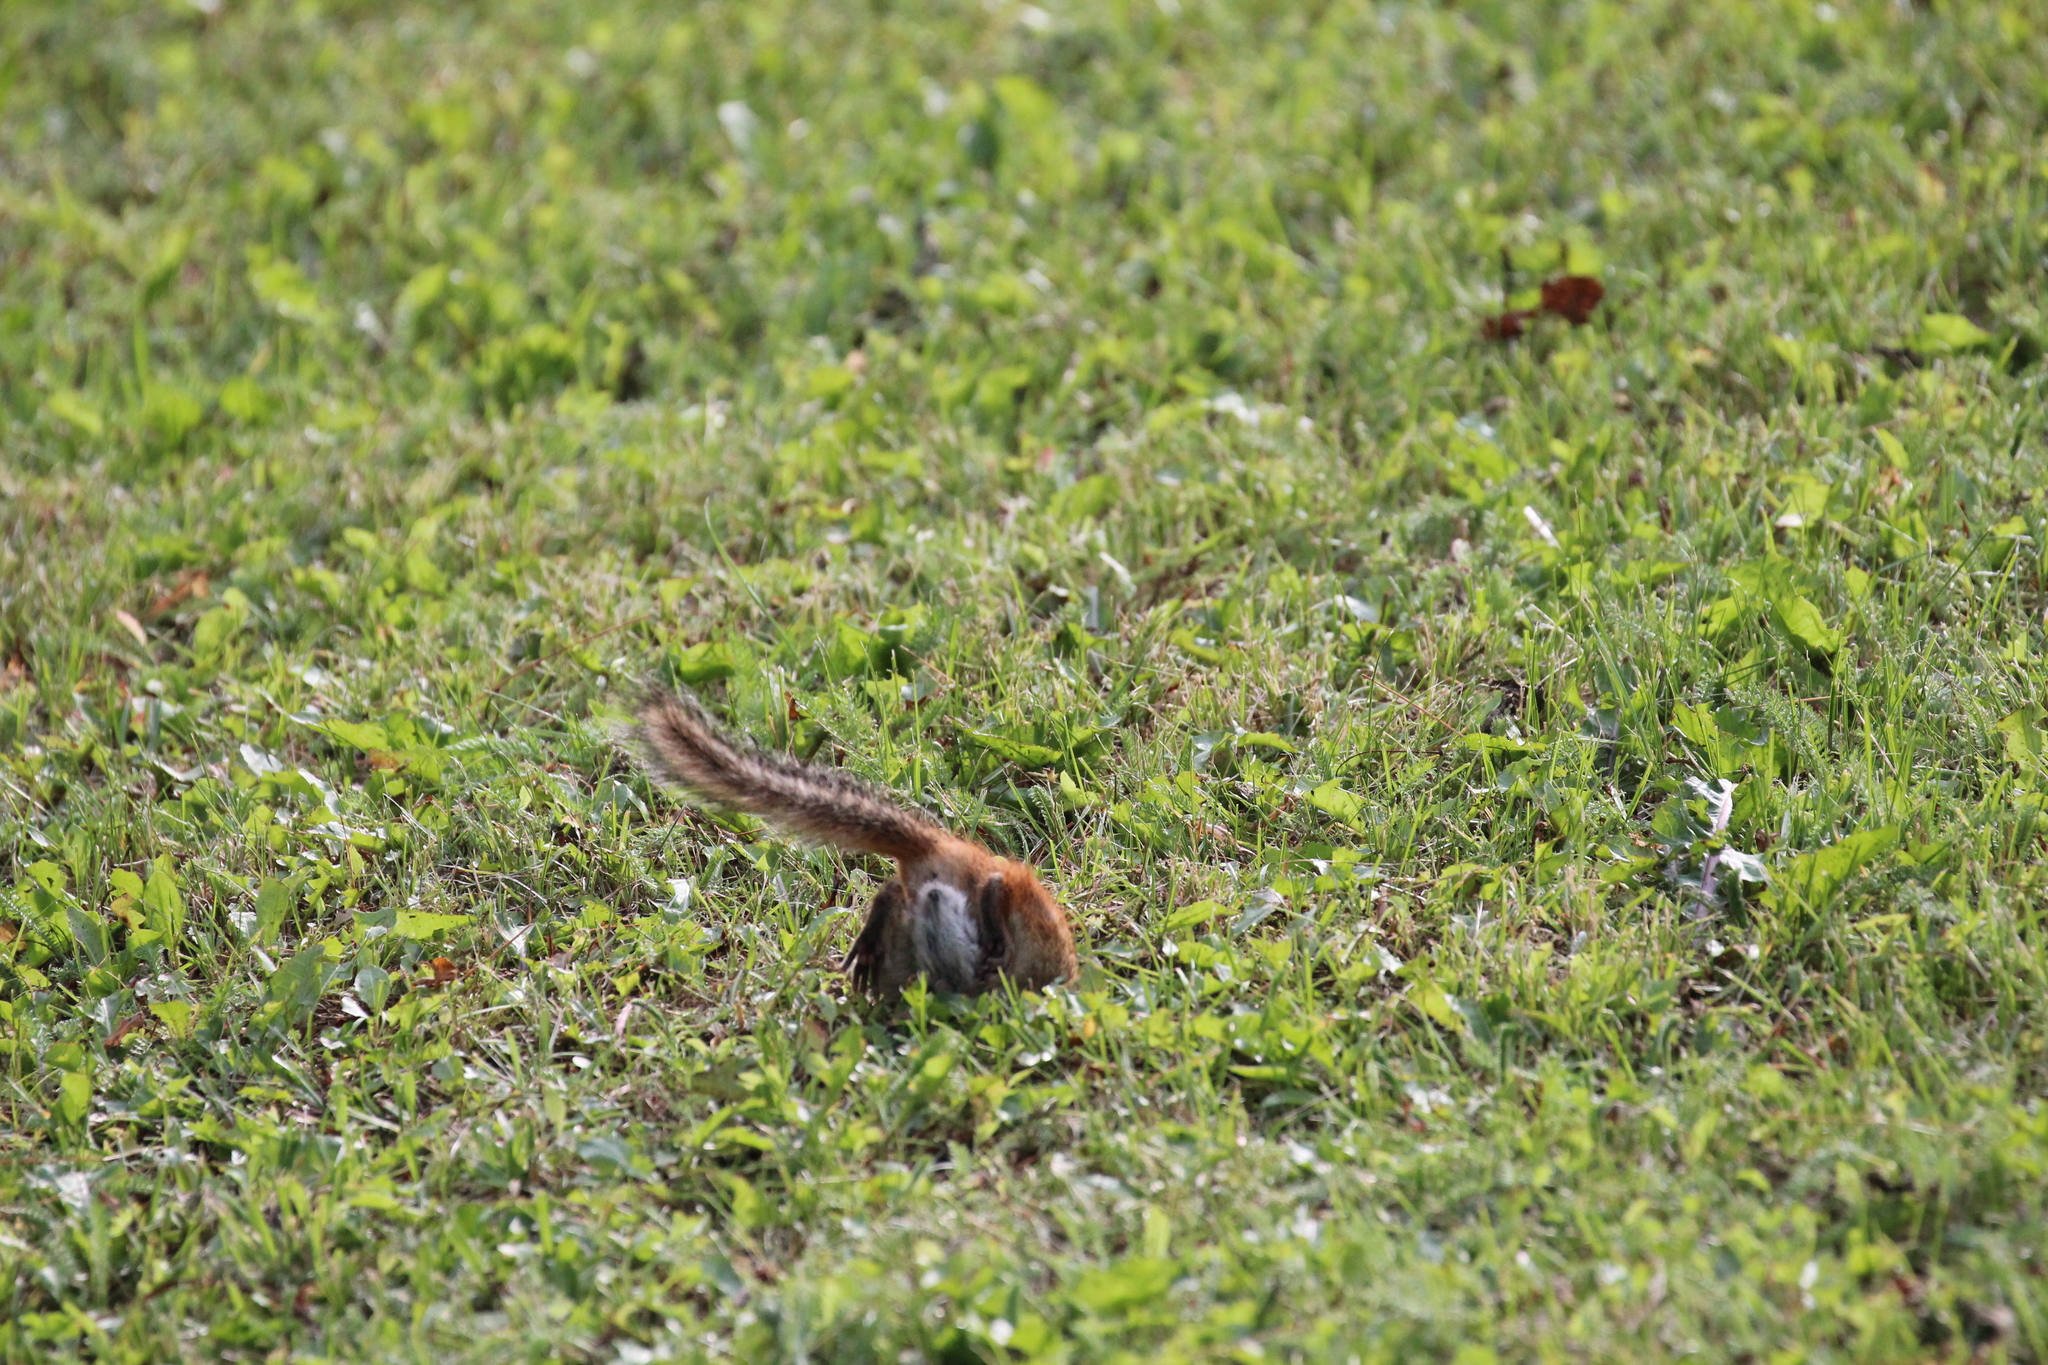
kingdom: Animalia
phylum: Chordata
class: Mammalia
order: Rodentia
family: Sciuridae
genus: Tamias
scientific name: Tamias striatus
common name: Eastern chipmunk
